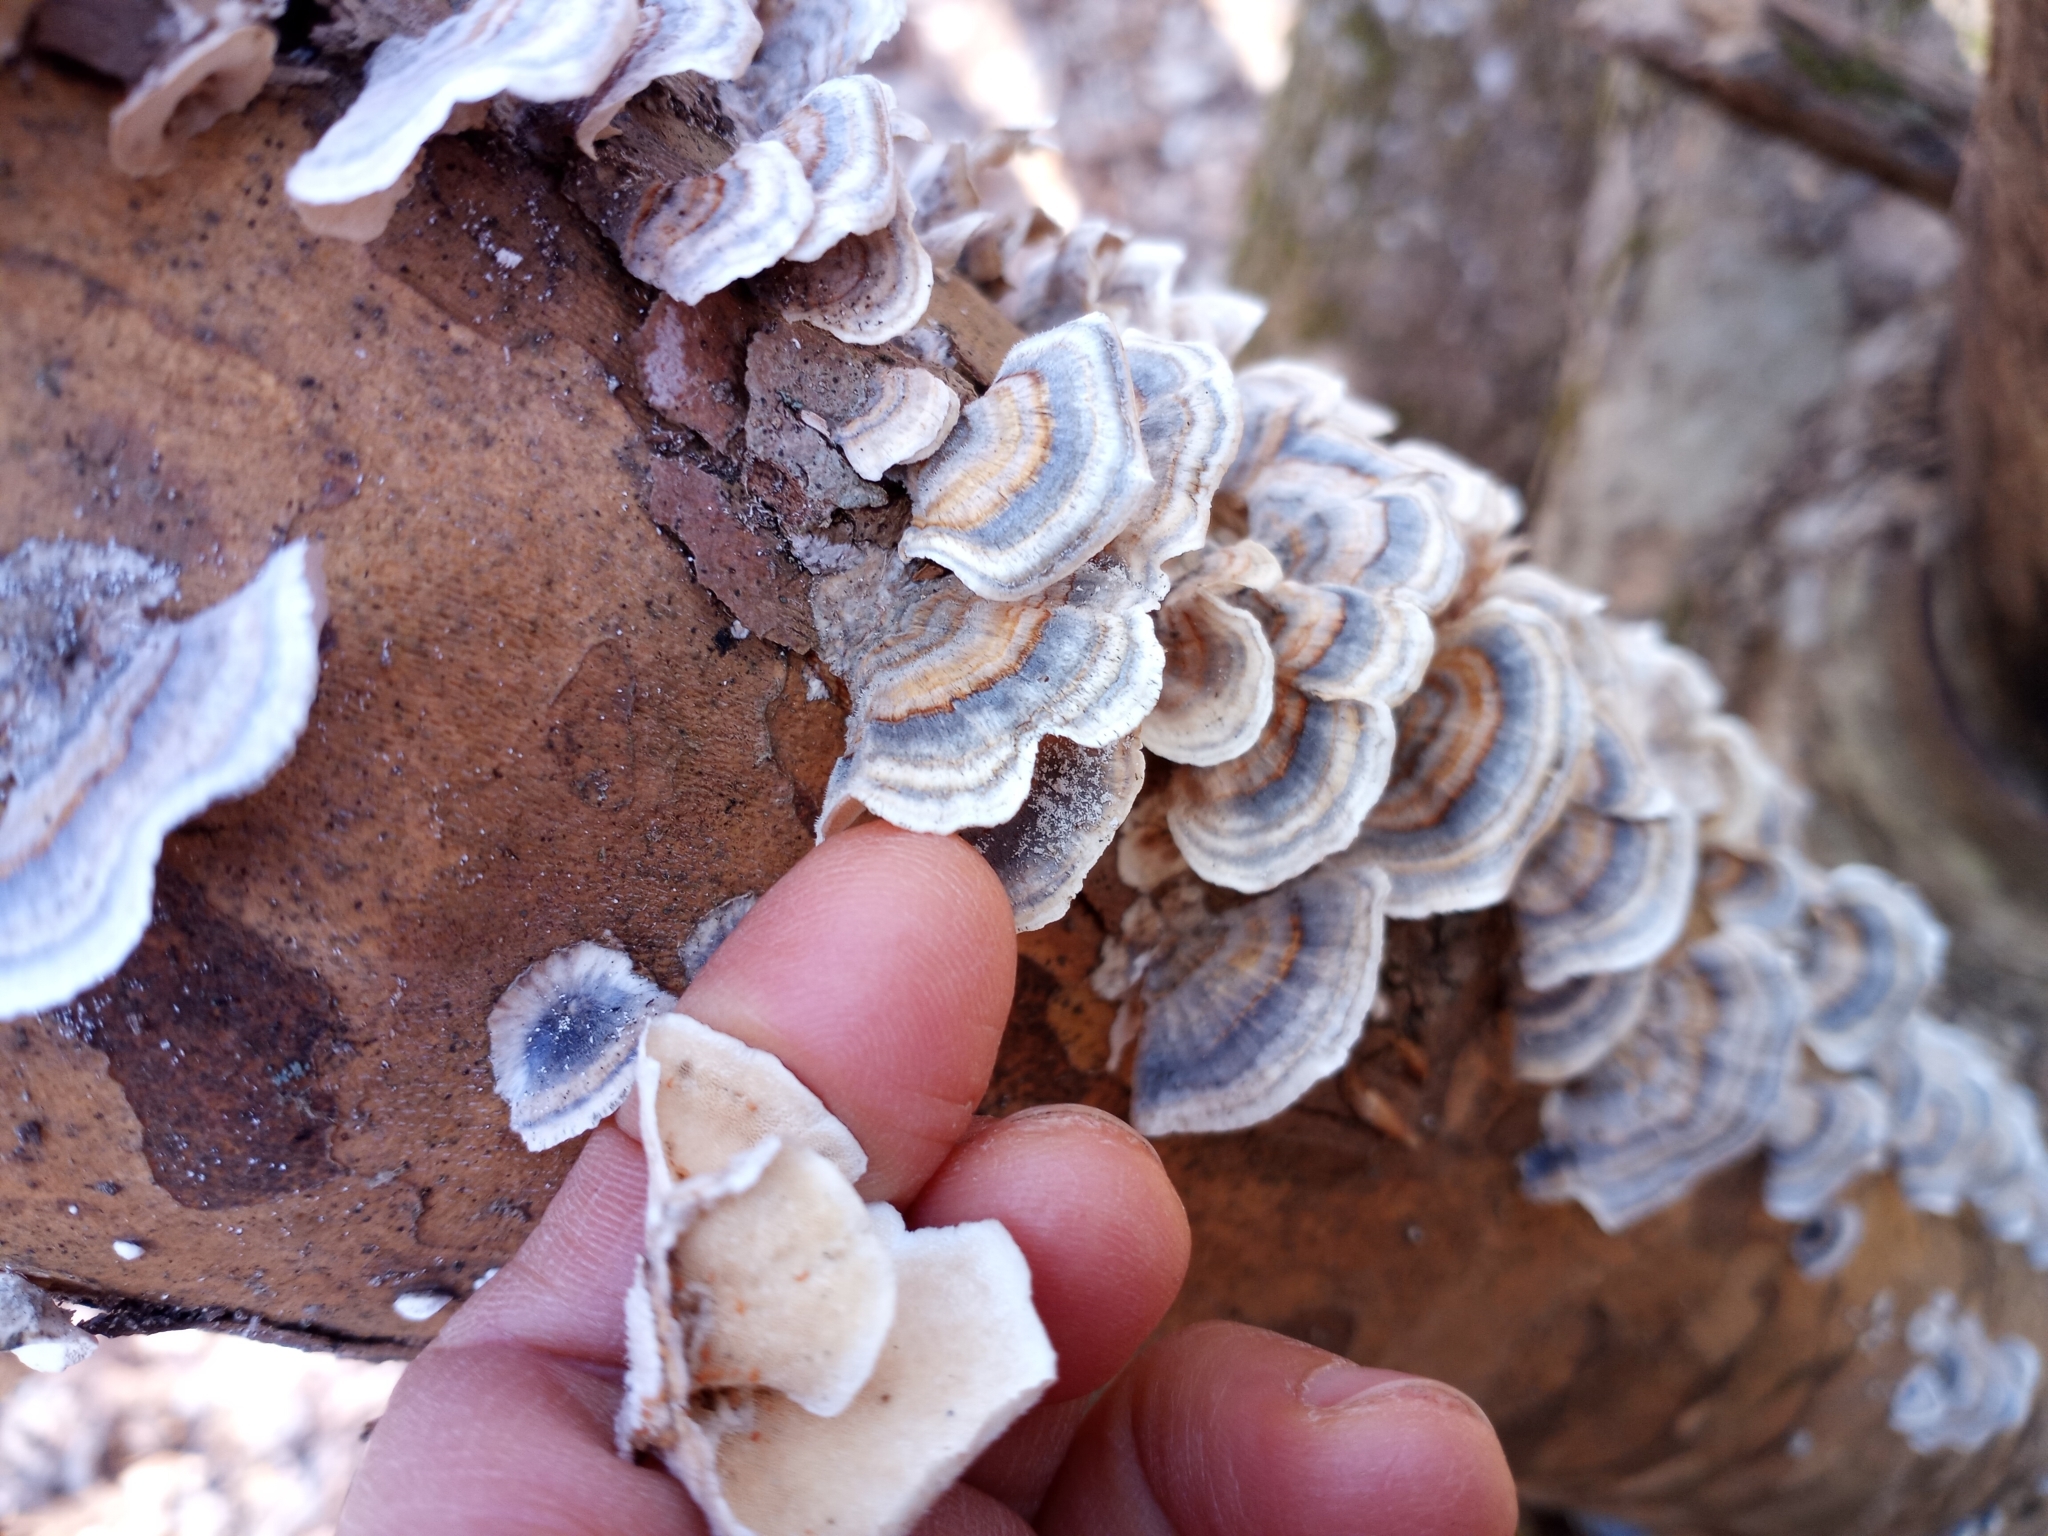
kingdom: Fungi
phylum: Basidiomycota
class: Agaricomycetes
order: Polyporales
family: Polyporaceae
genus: Trametes
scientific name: Trametes versicolor
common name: Turkeytail
